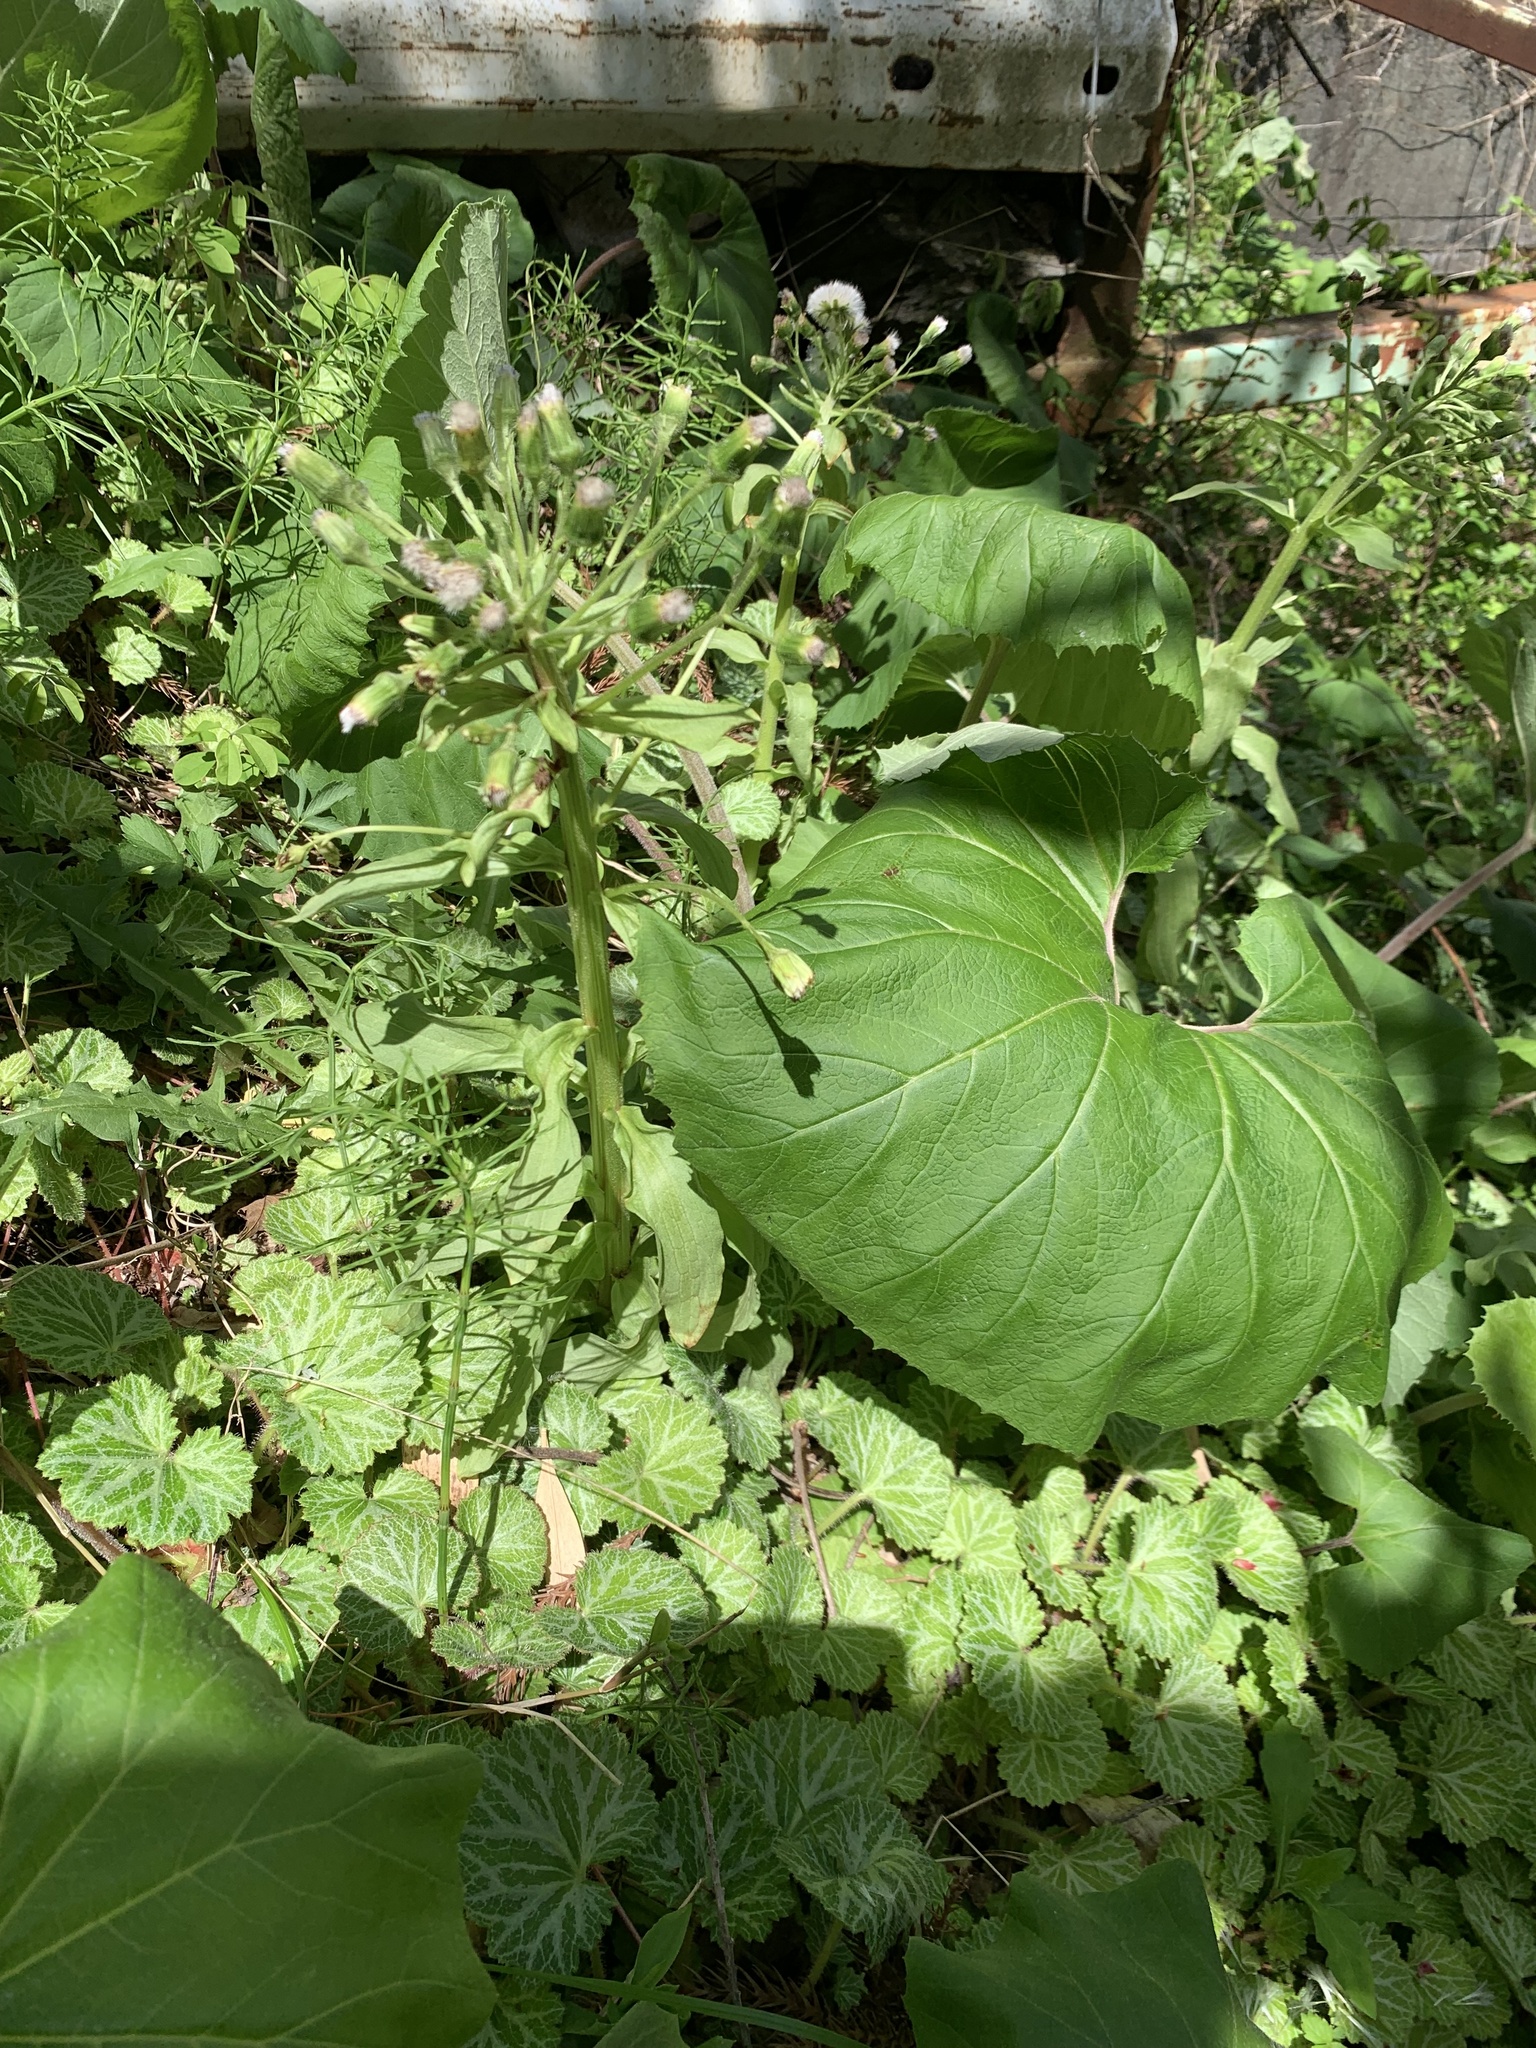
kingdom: Plantae
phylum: Tracheophyta
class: Magnoliopsida
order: Asterales
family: Asteraceae
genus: Petasites
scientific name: Petasites japonicus
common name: Giant butterbur
